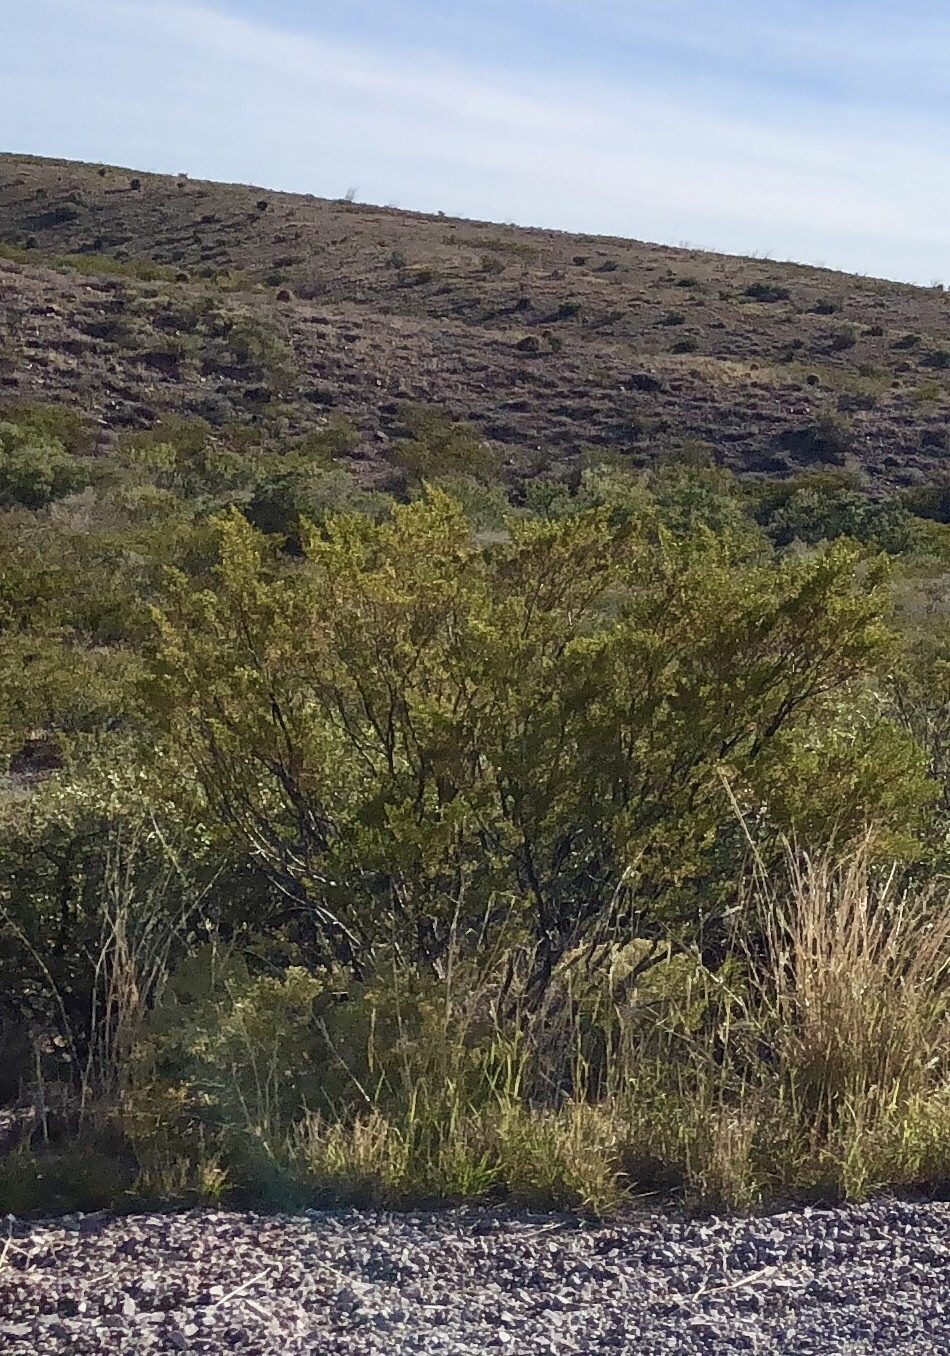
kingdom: Plantae
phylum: Tracheophyta
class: Magnoliopsida
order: Zygophyllales
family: Zygophyllaceae
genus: Larrea
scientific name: Larrea tridentata
